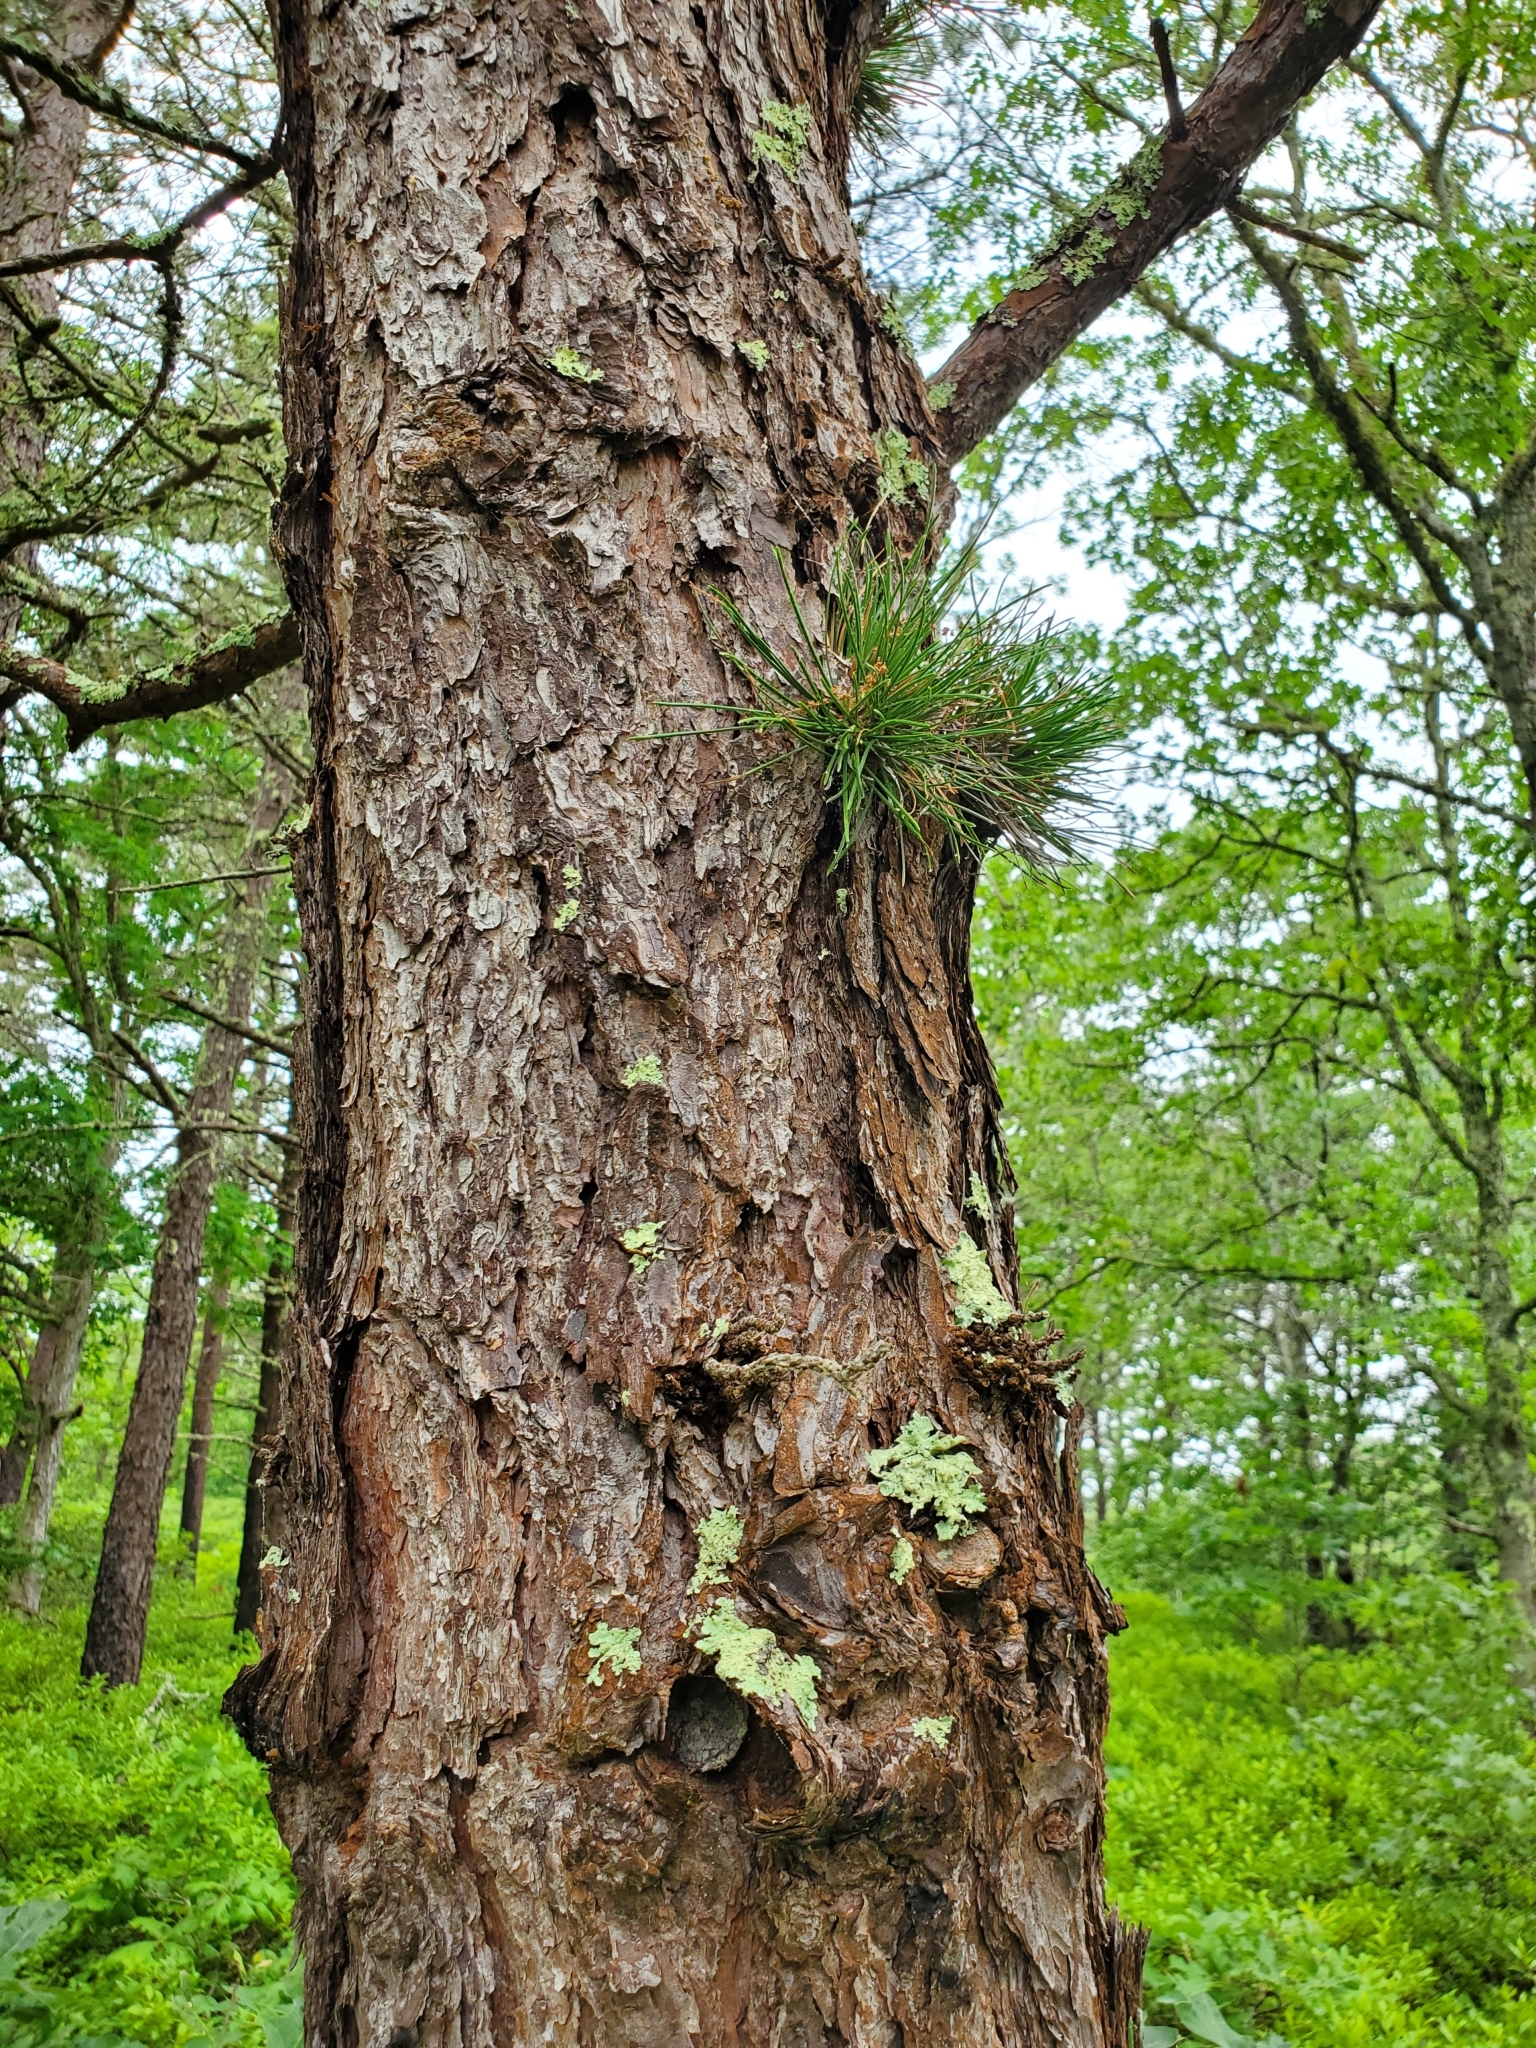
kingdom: Plantae
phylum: Tracheophyta
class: Pinopsida
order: Pinales
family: Pinaceae
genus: Pinus
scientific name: Pinus rigida
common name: Pitch pine
